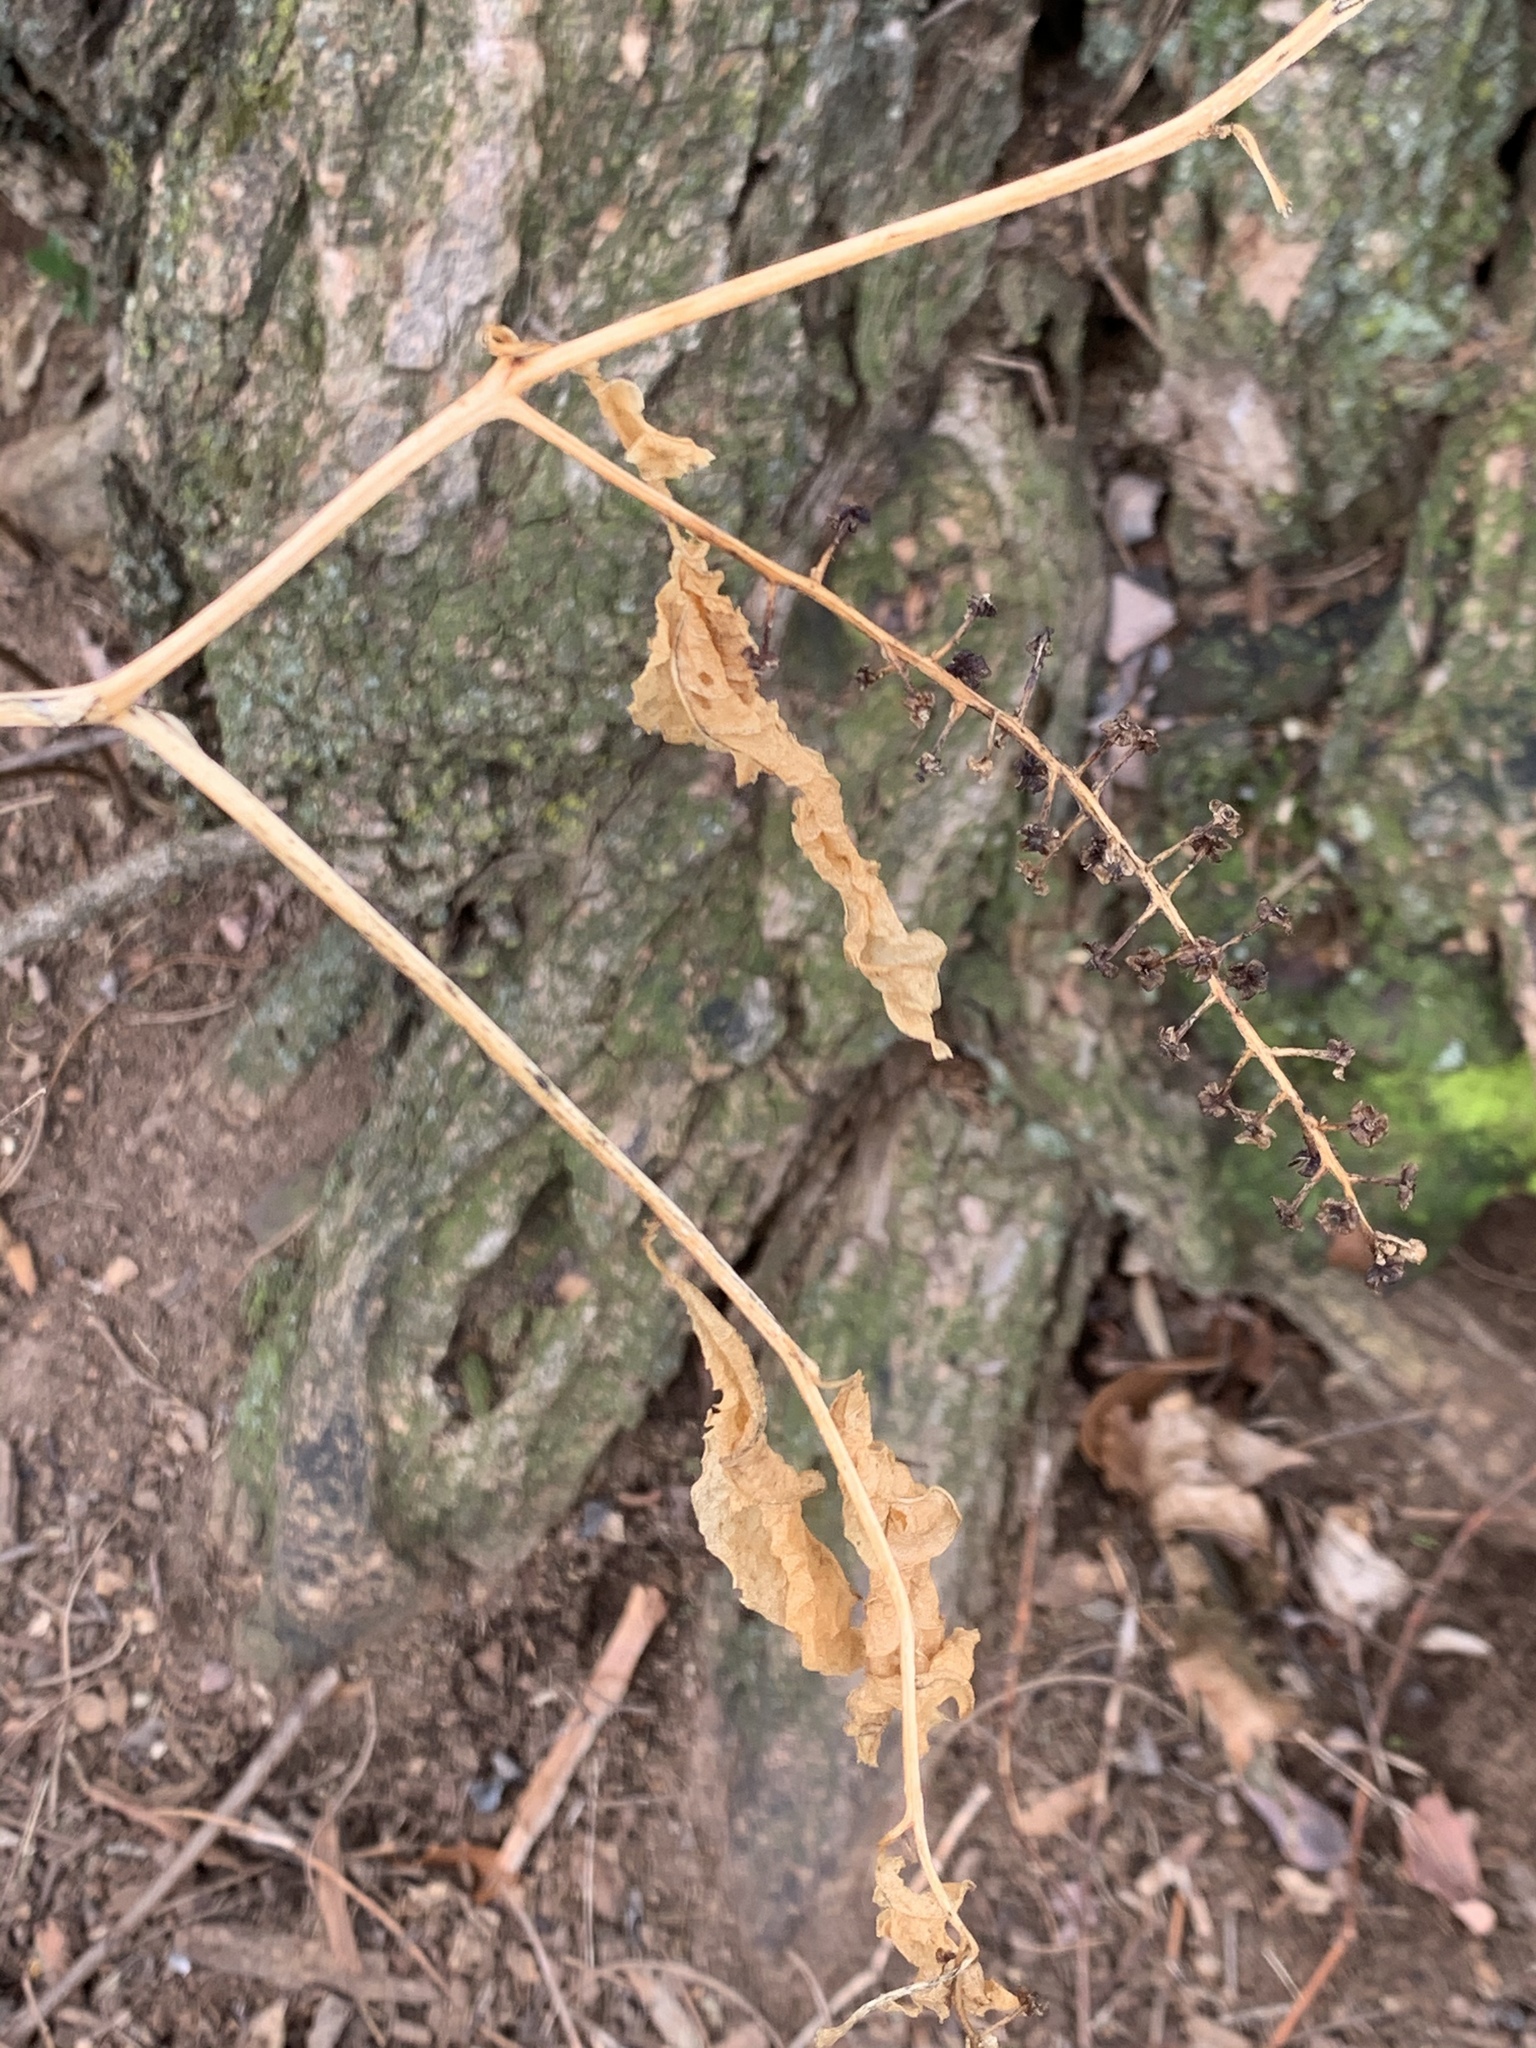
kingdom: Plantae
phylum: Tracheophyta
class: Magnoliopsida
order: Caryophyllales
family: Phytolaccaceae
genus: Phytolacca
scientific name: Phytolacca americana
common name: American pokeweed
